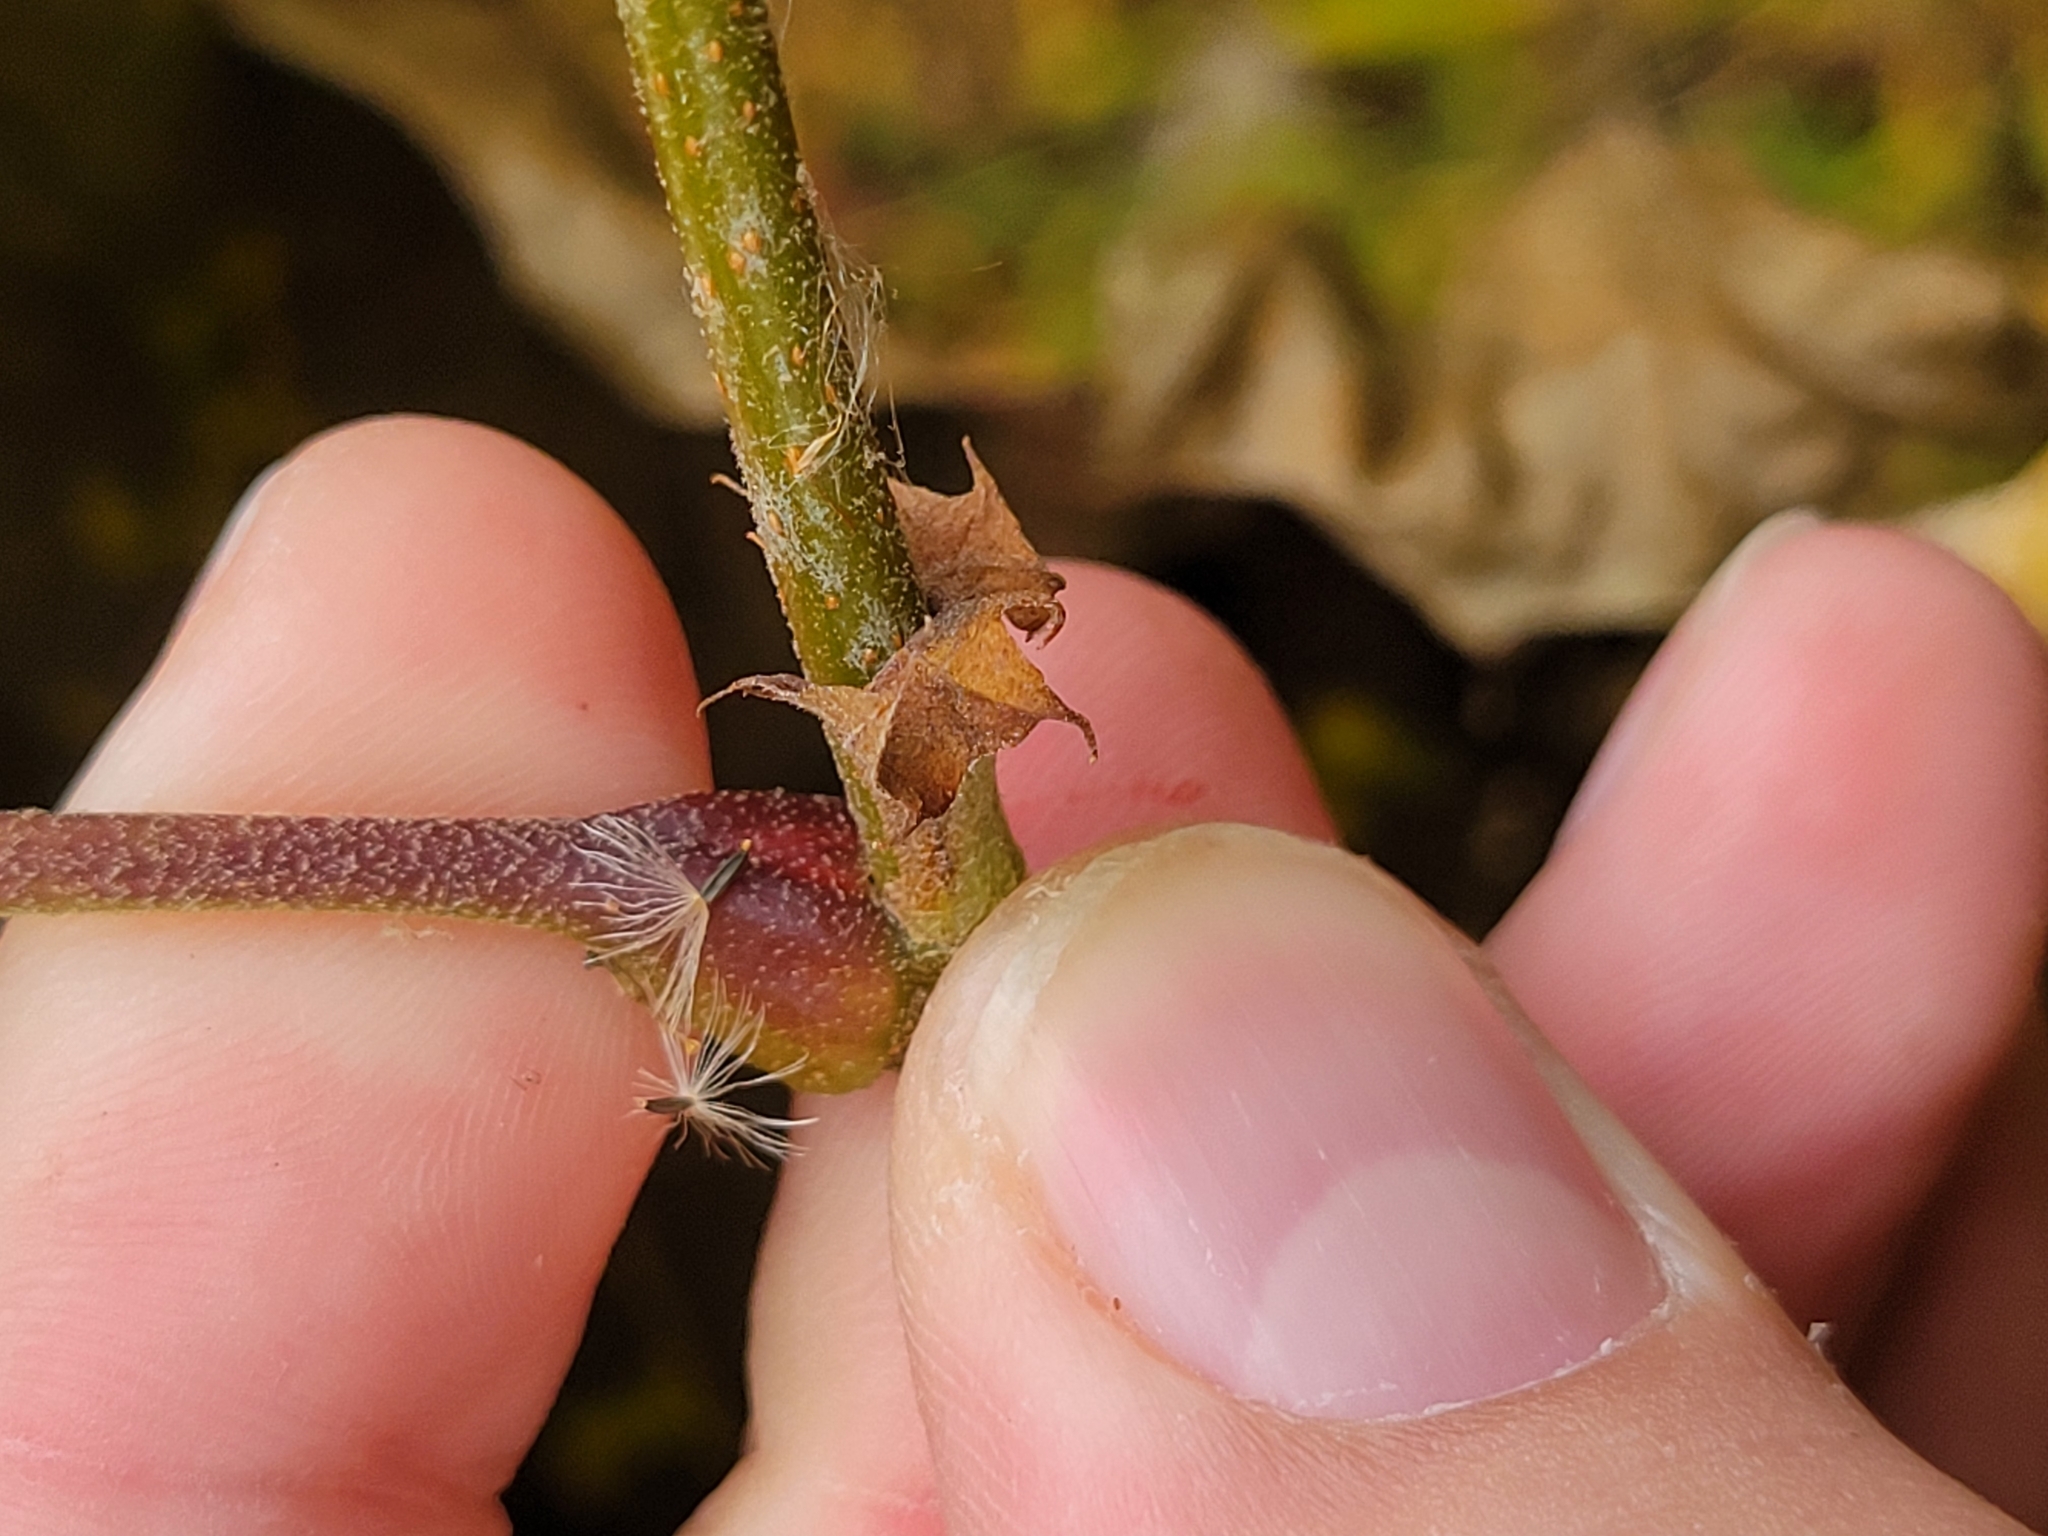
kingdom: Plantae
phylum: Tracheophyta
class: Magnoliopsida
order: Proteales
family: Platanaceae
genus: Platanus
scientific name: Platanus occidentalis
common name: American sycamore
